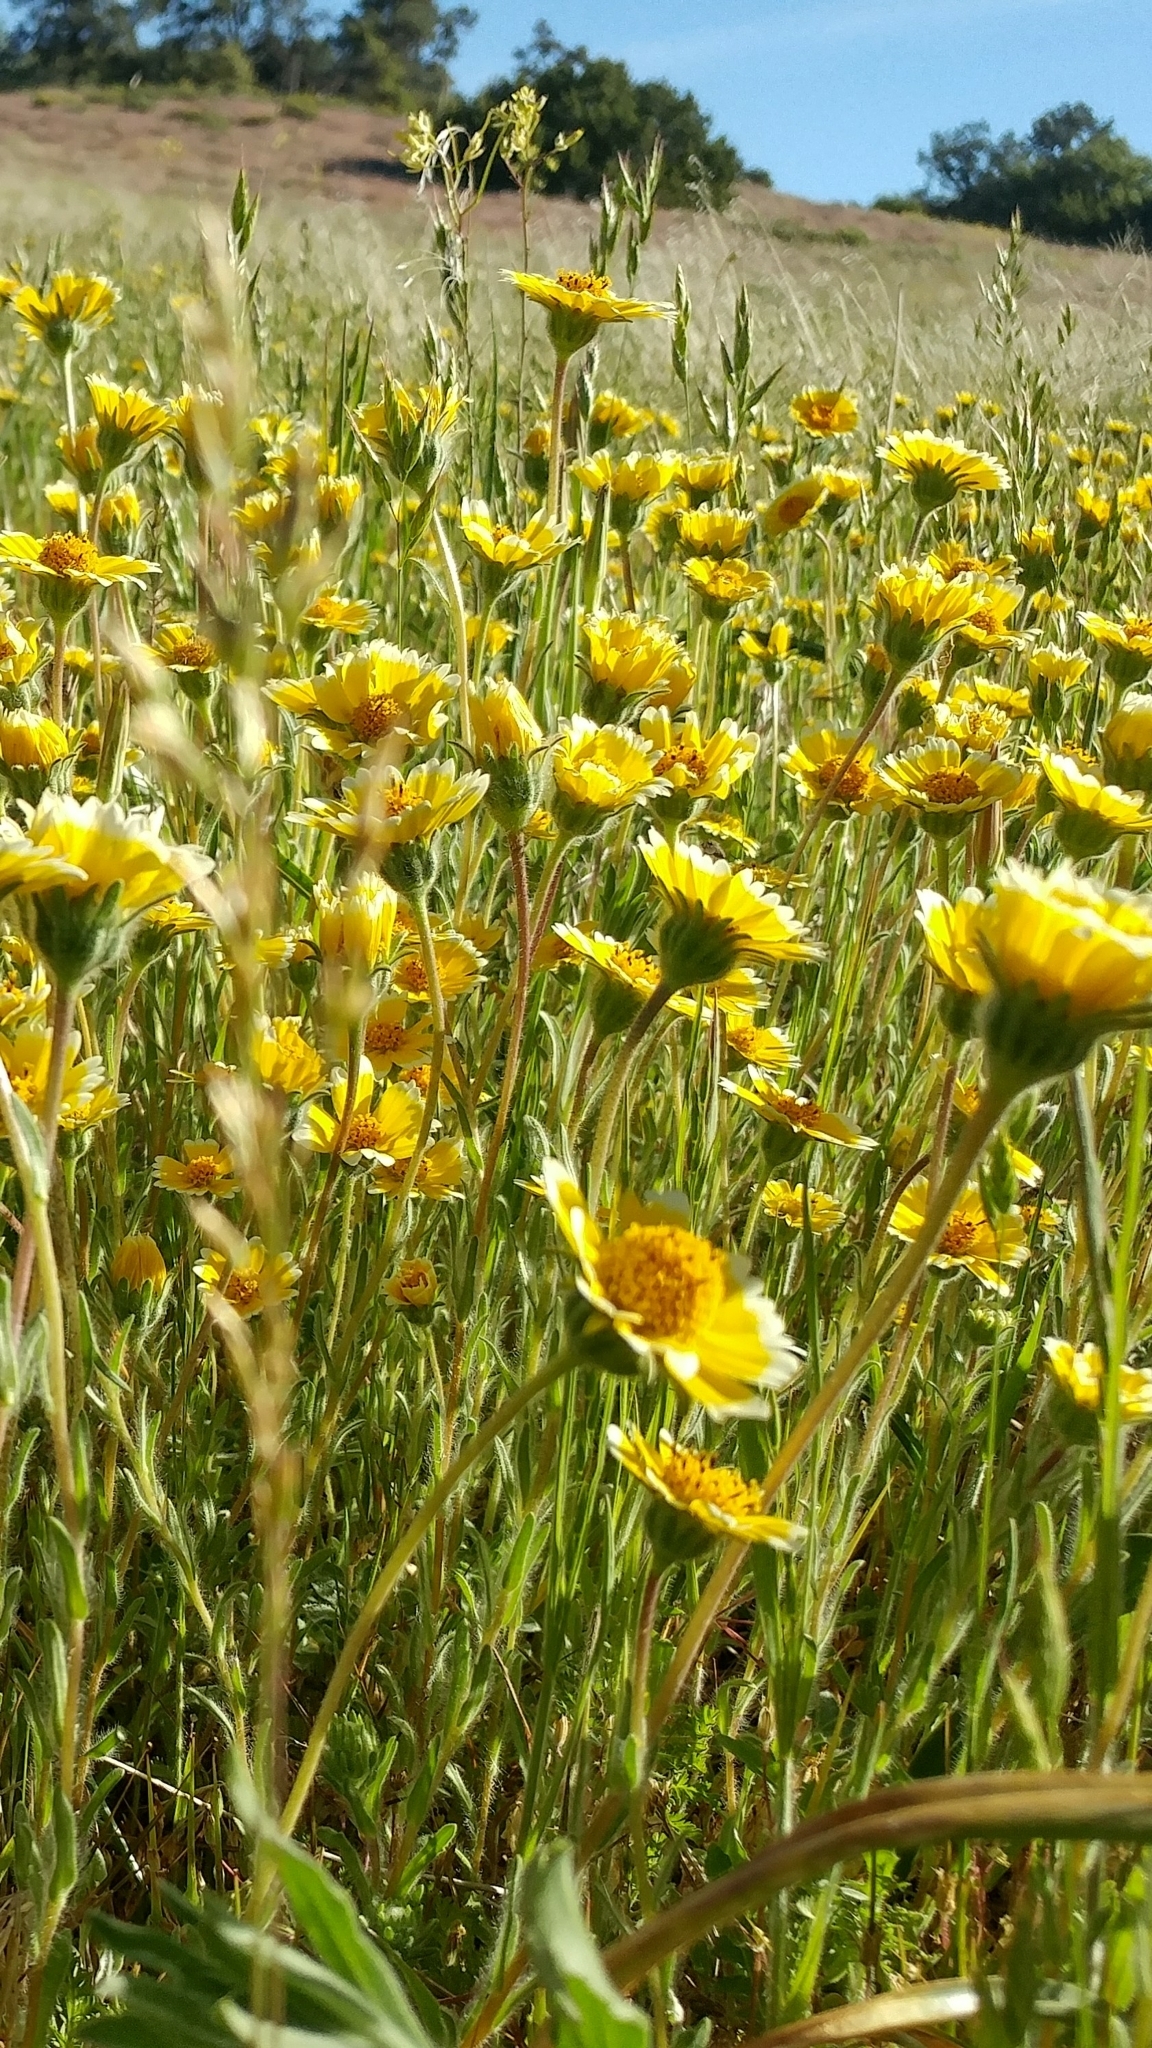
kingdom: Plantae
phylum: Tracheophyta
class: Magnoliopsida
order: Asterales
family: Asteraceae
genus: Layia
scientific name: Layia platyglossa
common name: Tidy-tips
